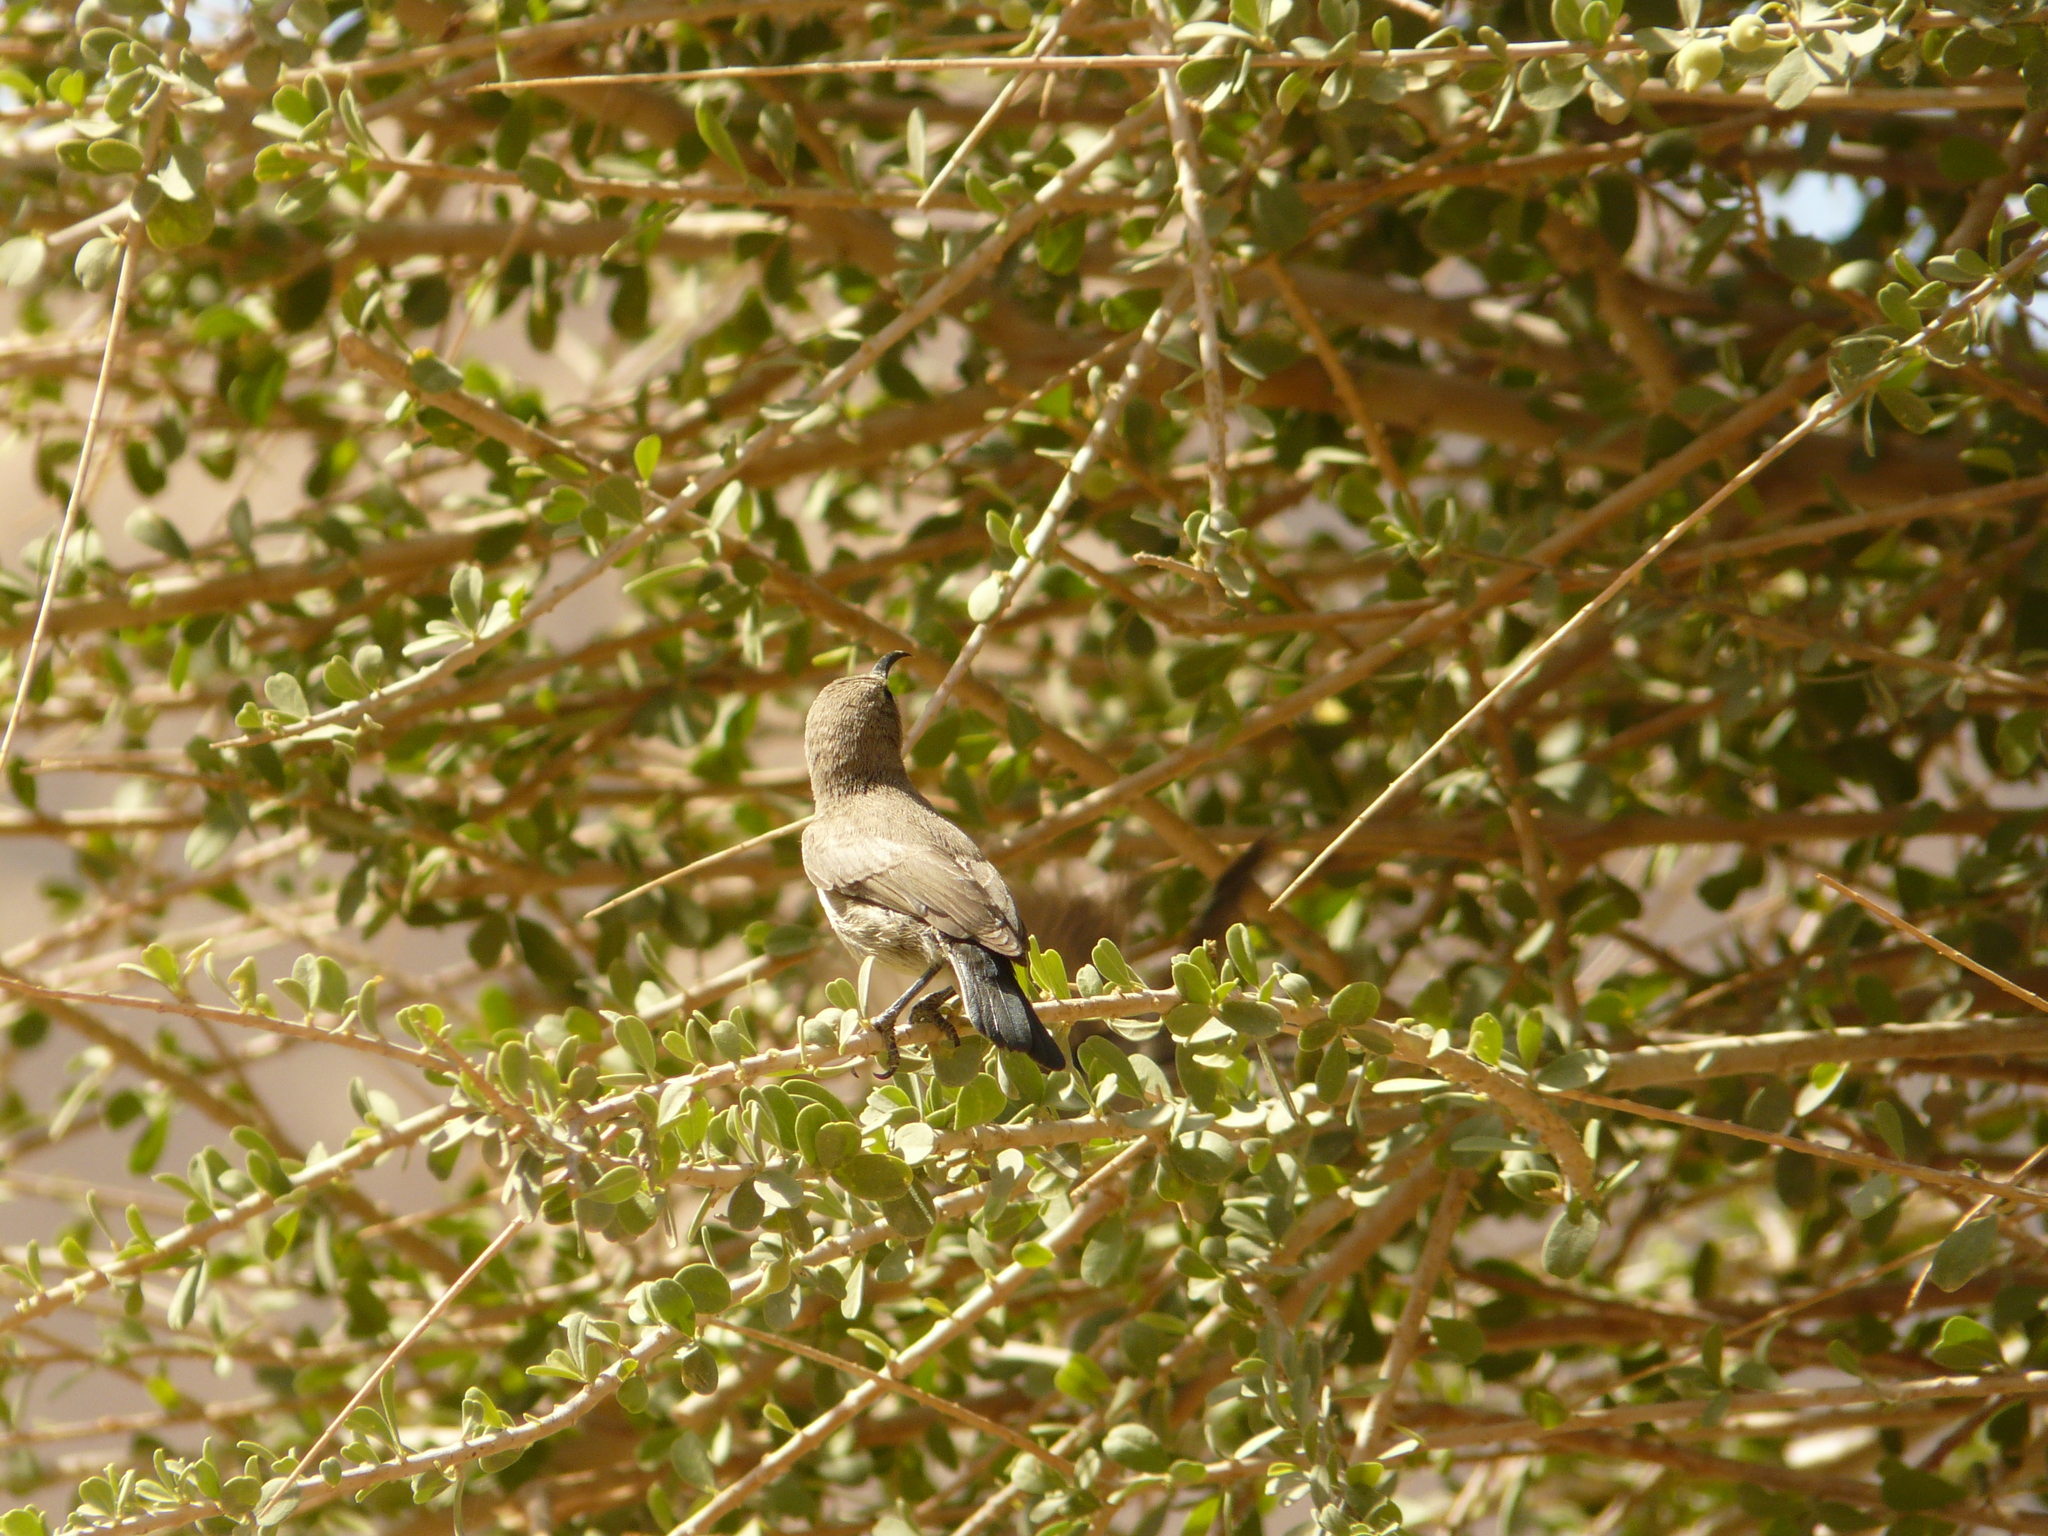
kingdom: Animalia
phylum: Chordata
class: Aves
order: Passeriformes
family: Nectariniidae
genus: Cinnyris
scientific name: Cinnyris osea
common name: Palestine sunbird
